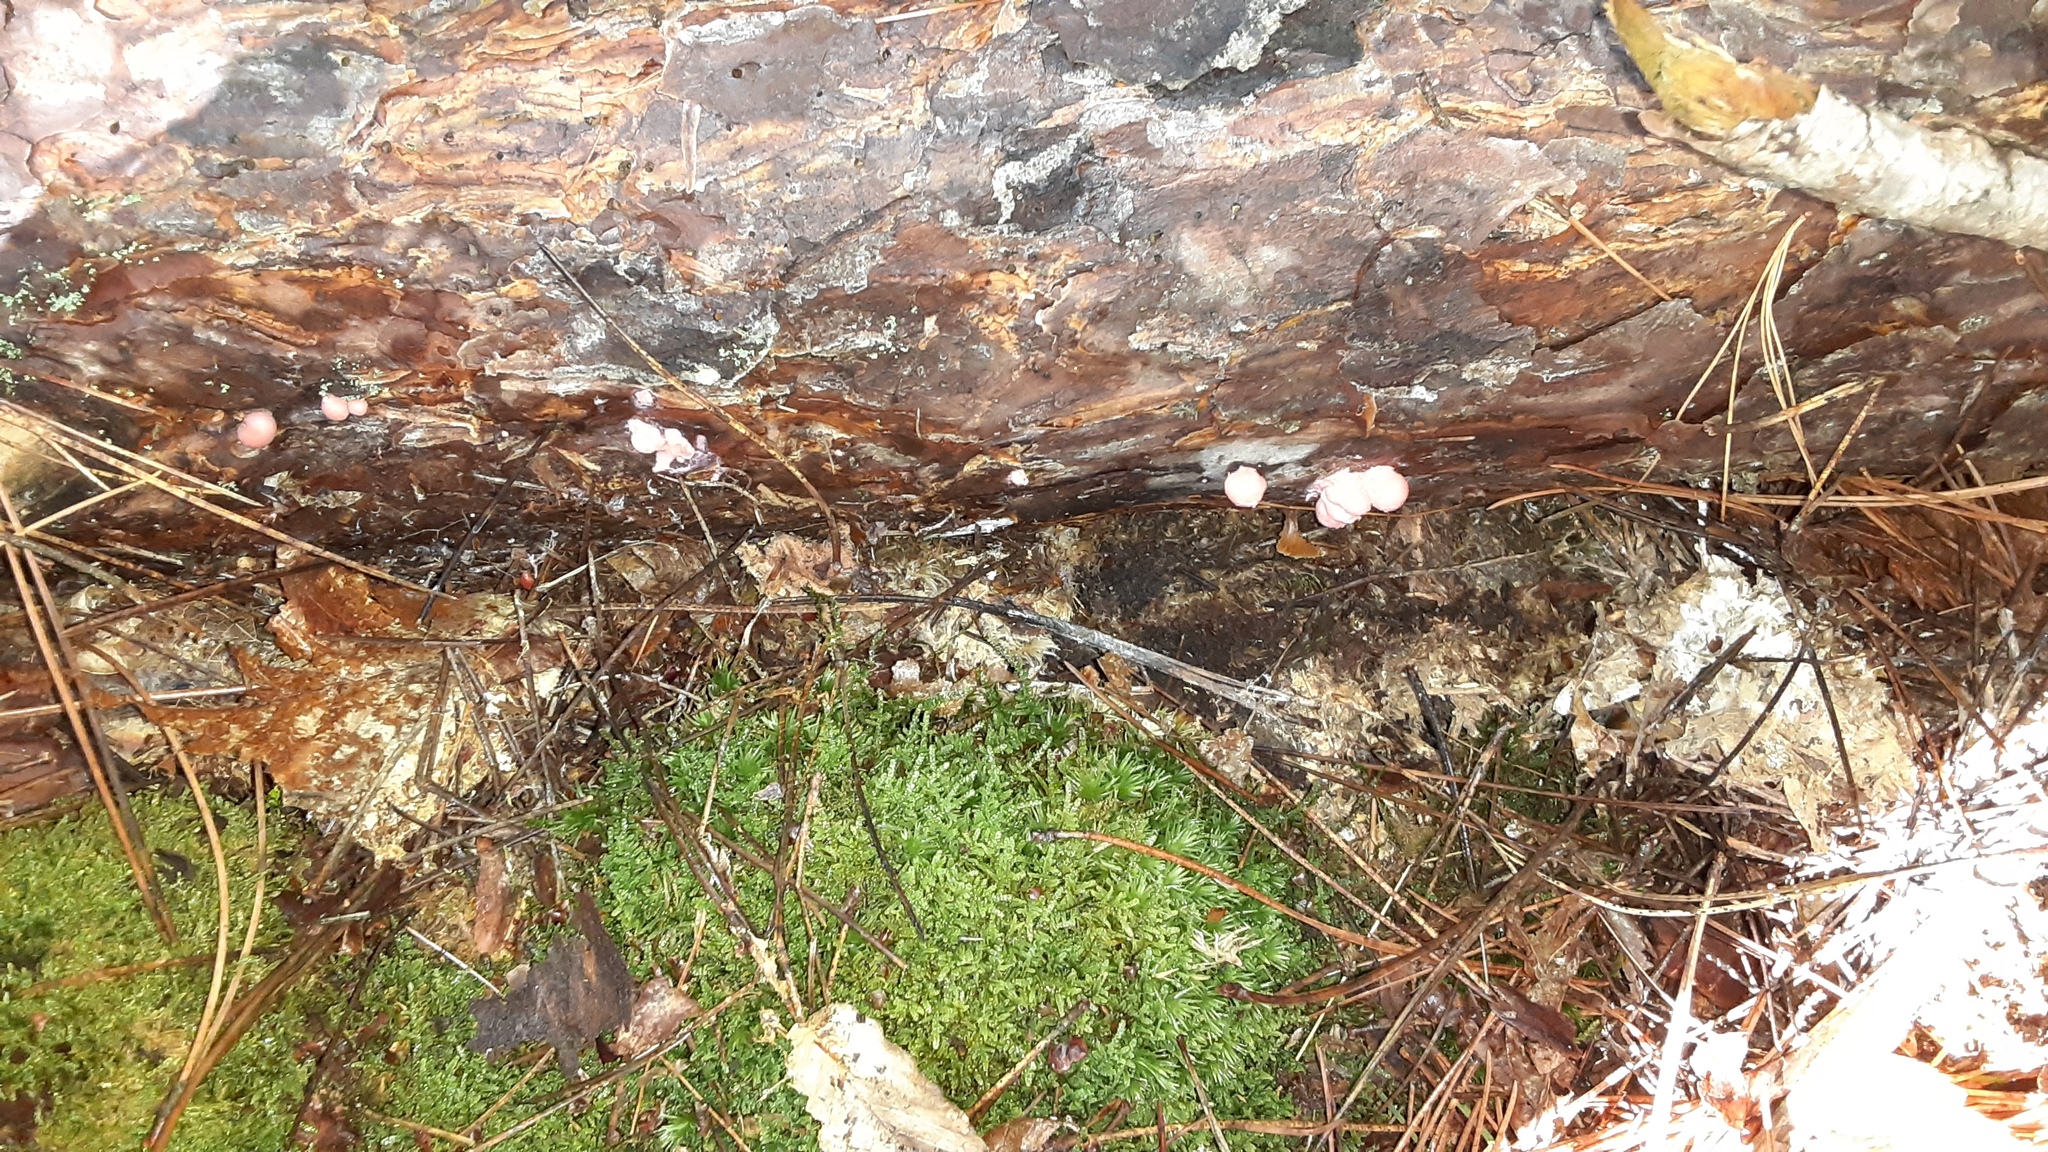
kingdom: Protozoa
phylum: Mycetozoa
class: Myxomycetes
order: Cribrariales
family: Tubiferaceae
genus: Lycogala
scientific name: Lycogala epidendrum
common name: Wolf's milk
